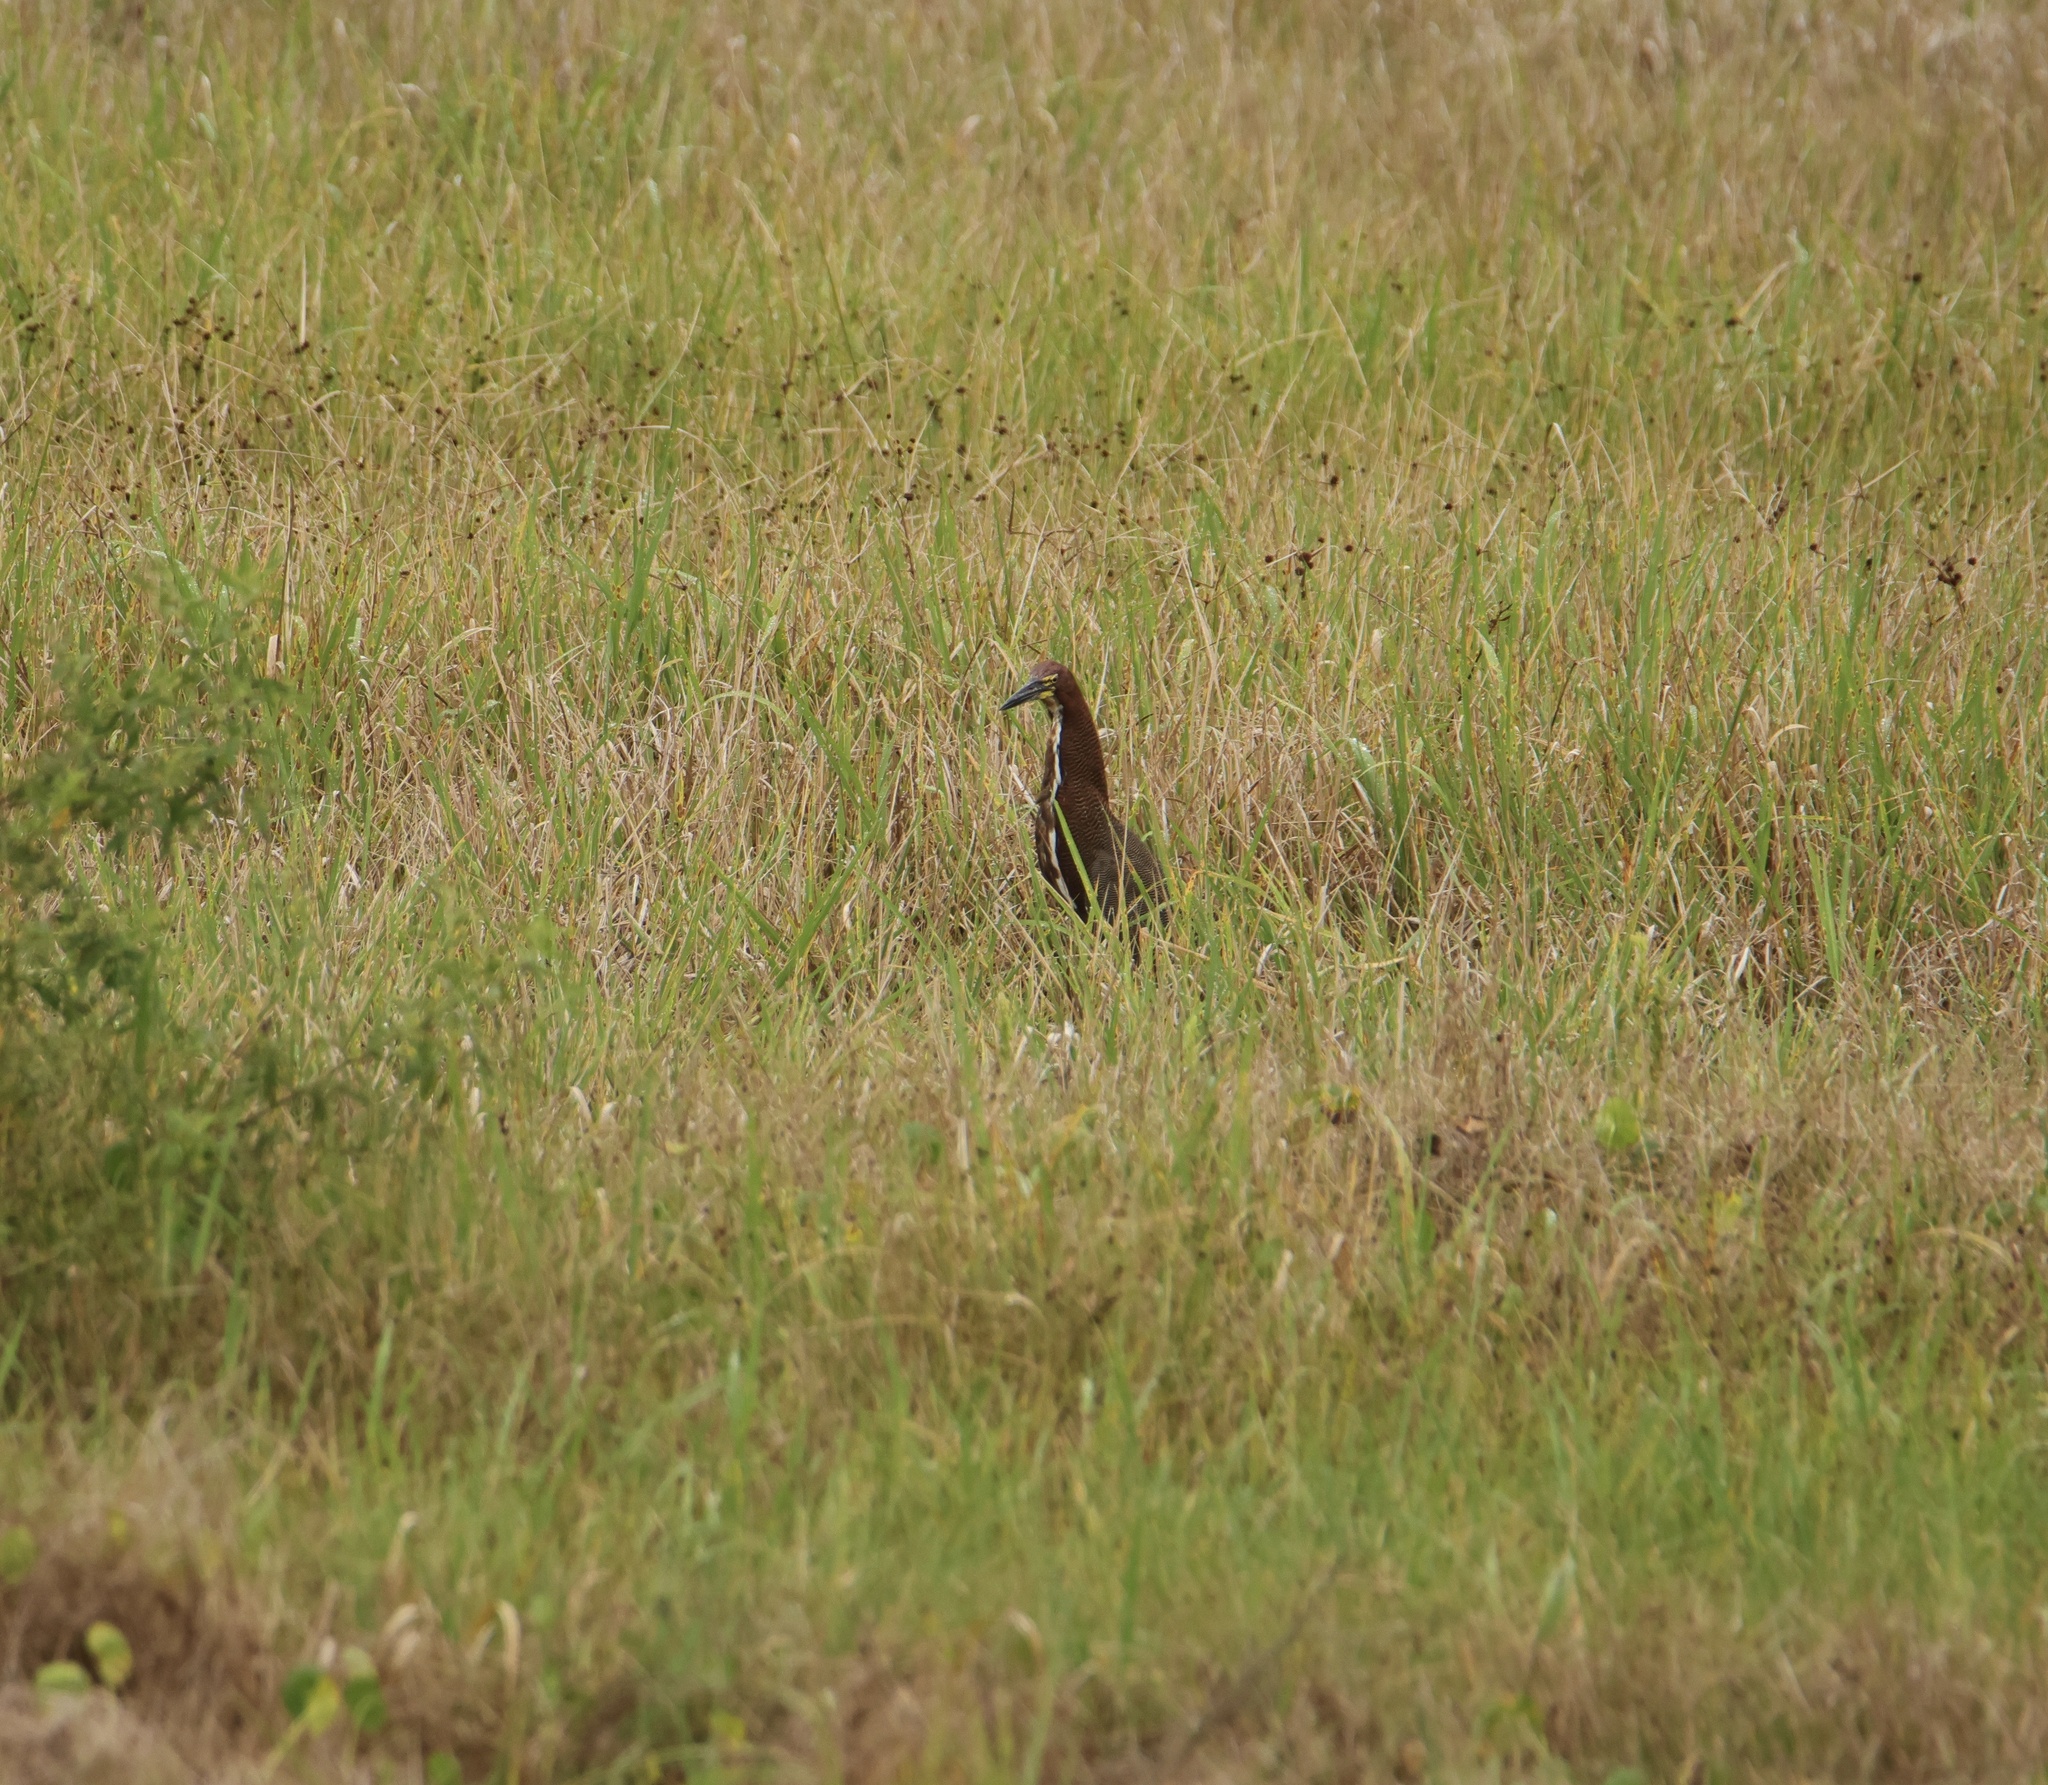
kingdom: Animalia
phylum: Chordata
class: Aves
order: Pelecaniformes
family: Ardeidae
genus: Tigrisoma
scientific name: Tigrisoma lineatum
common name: Rufescent tiger-heron
